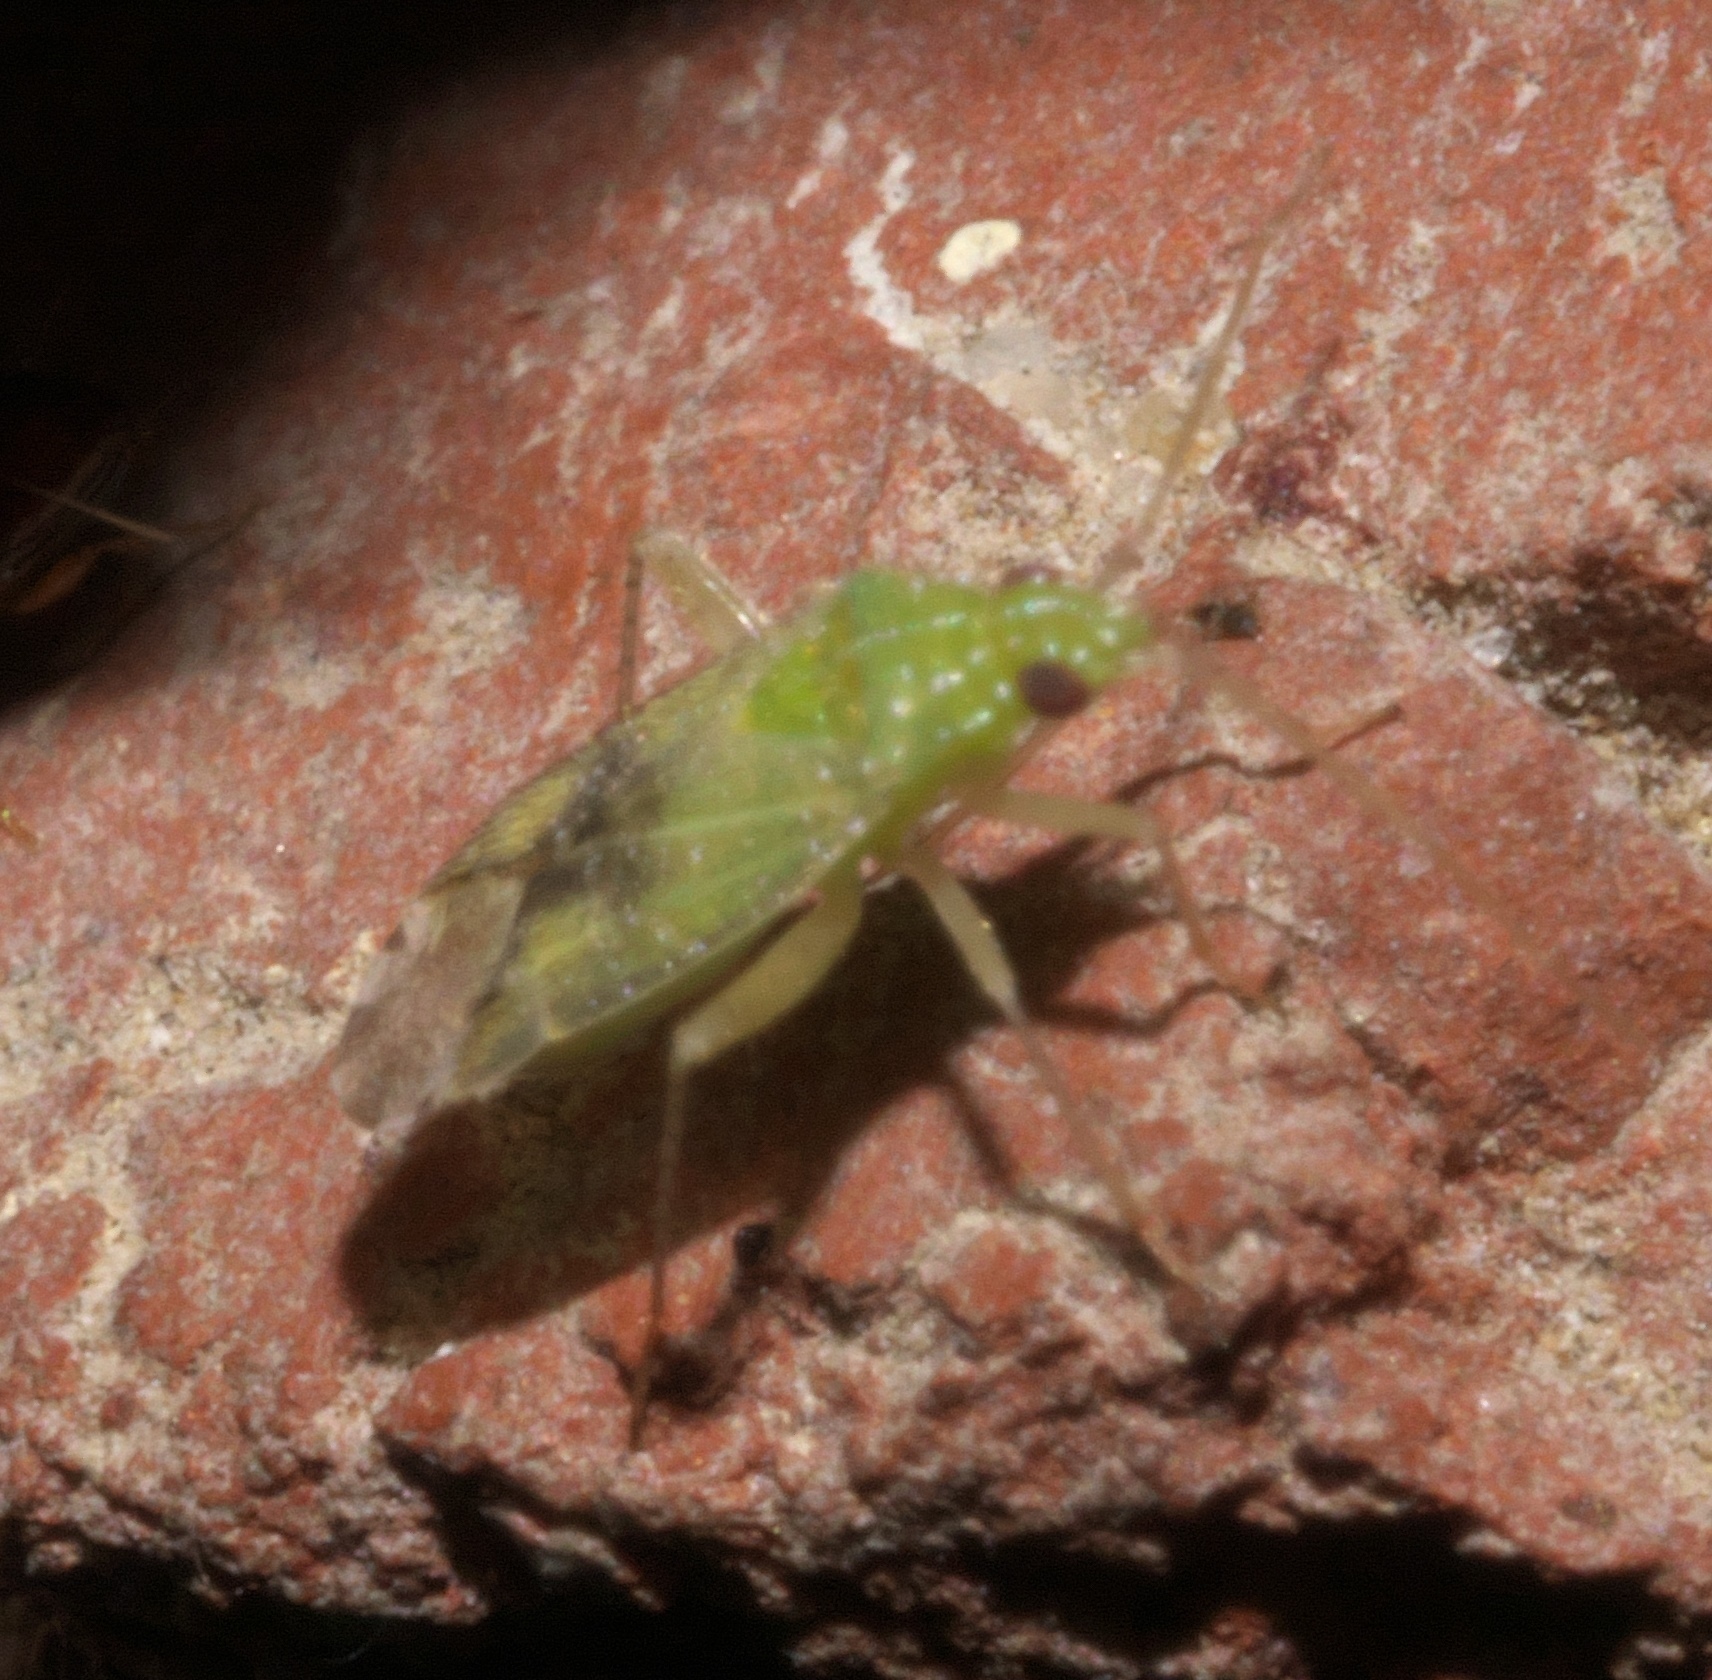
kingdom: Animalia
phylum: Arthropoda
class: Insecta
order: Hemiptera
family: Miridae
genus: Keltonia
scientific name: Keltonia tuckeri
